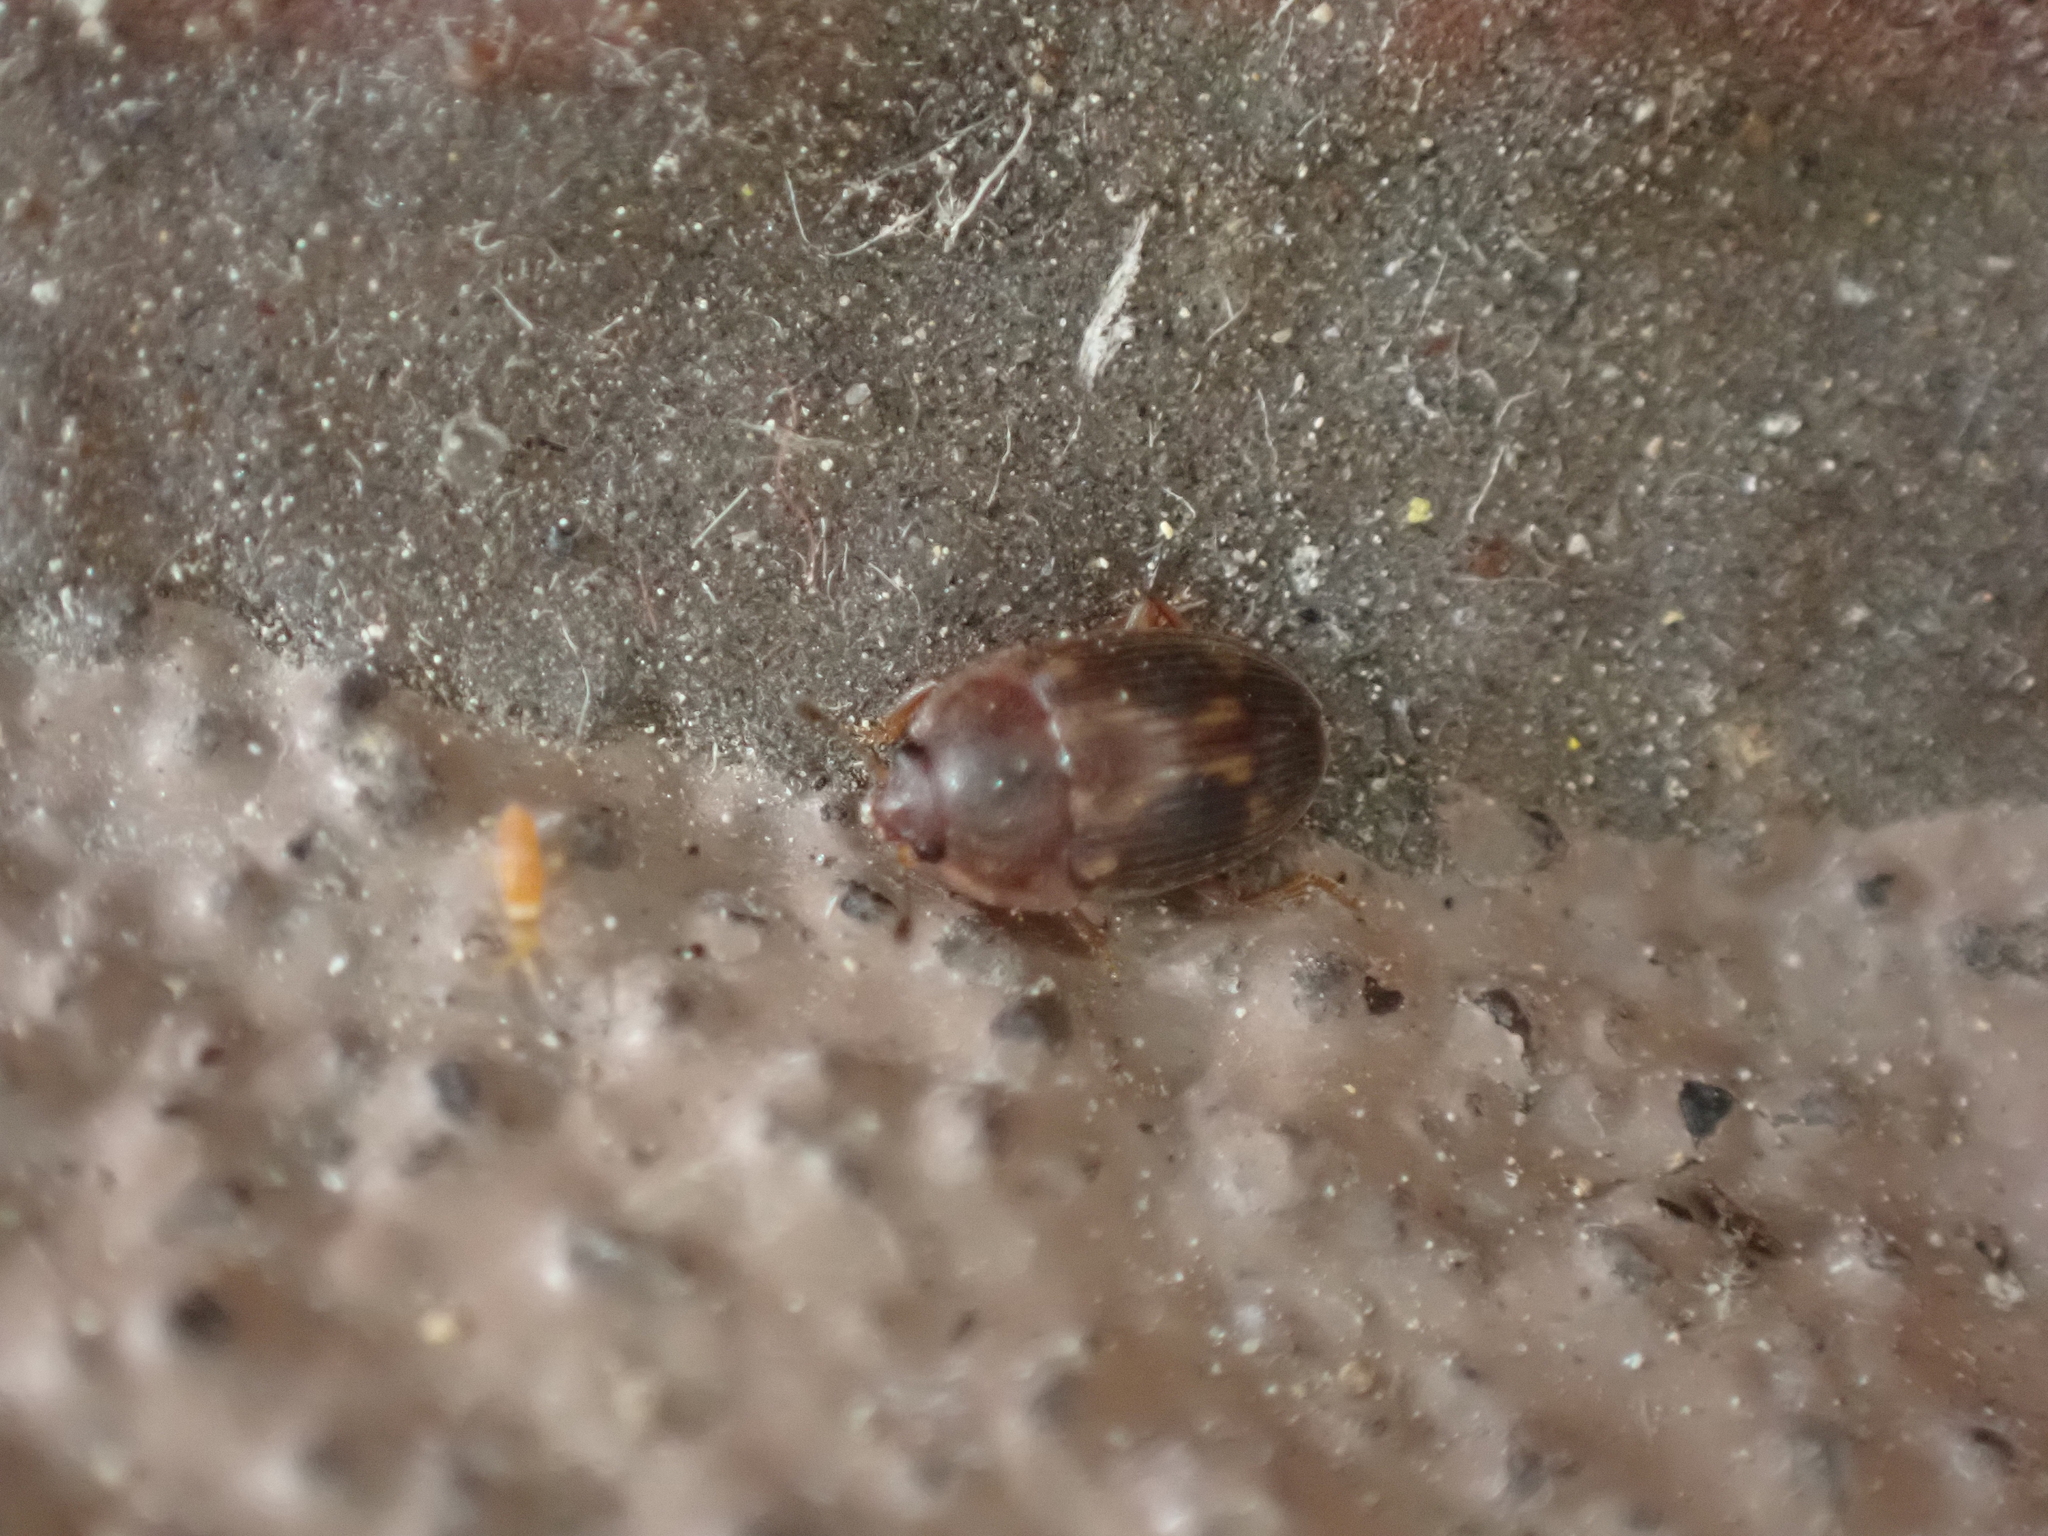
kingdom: Animalia
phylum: Arthropoda
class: Insecta
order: Coleoptera
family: Nitidulidae
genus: Stelidota
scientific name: Stelidota geminata
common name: Strawberry sap beetle
